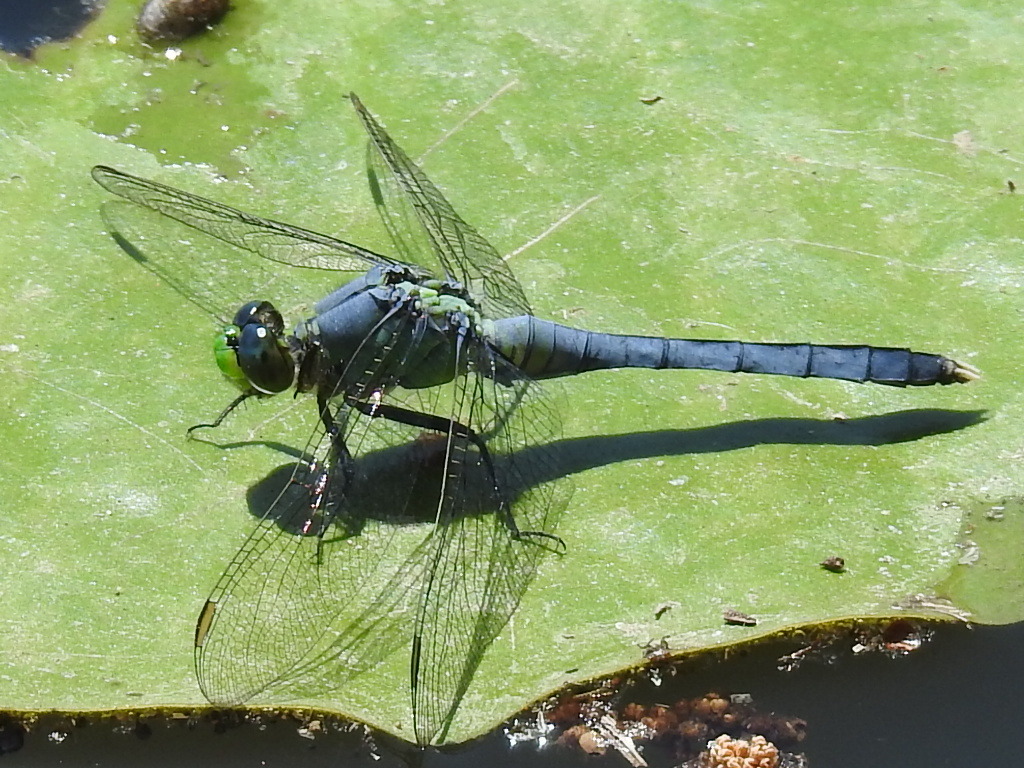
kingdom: Animalia
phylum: Arthropoda
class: Insecta
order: Odonata
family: Libellulidae
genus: Erythemis
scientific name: Erythemis simplicicollis
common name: Eastern pondhawk
